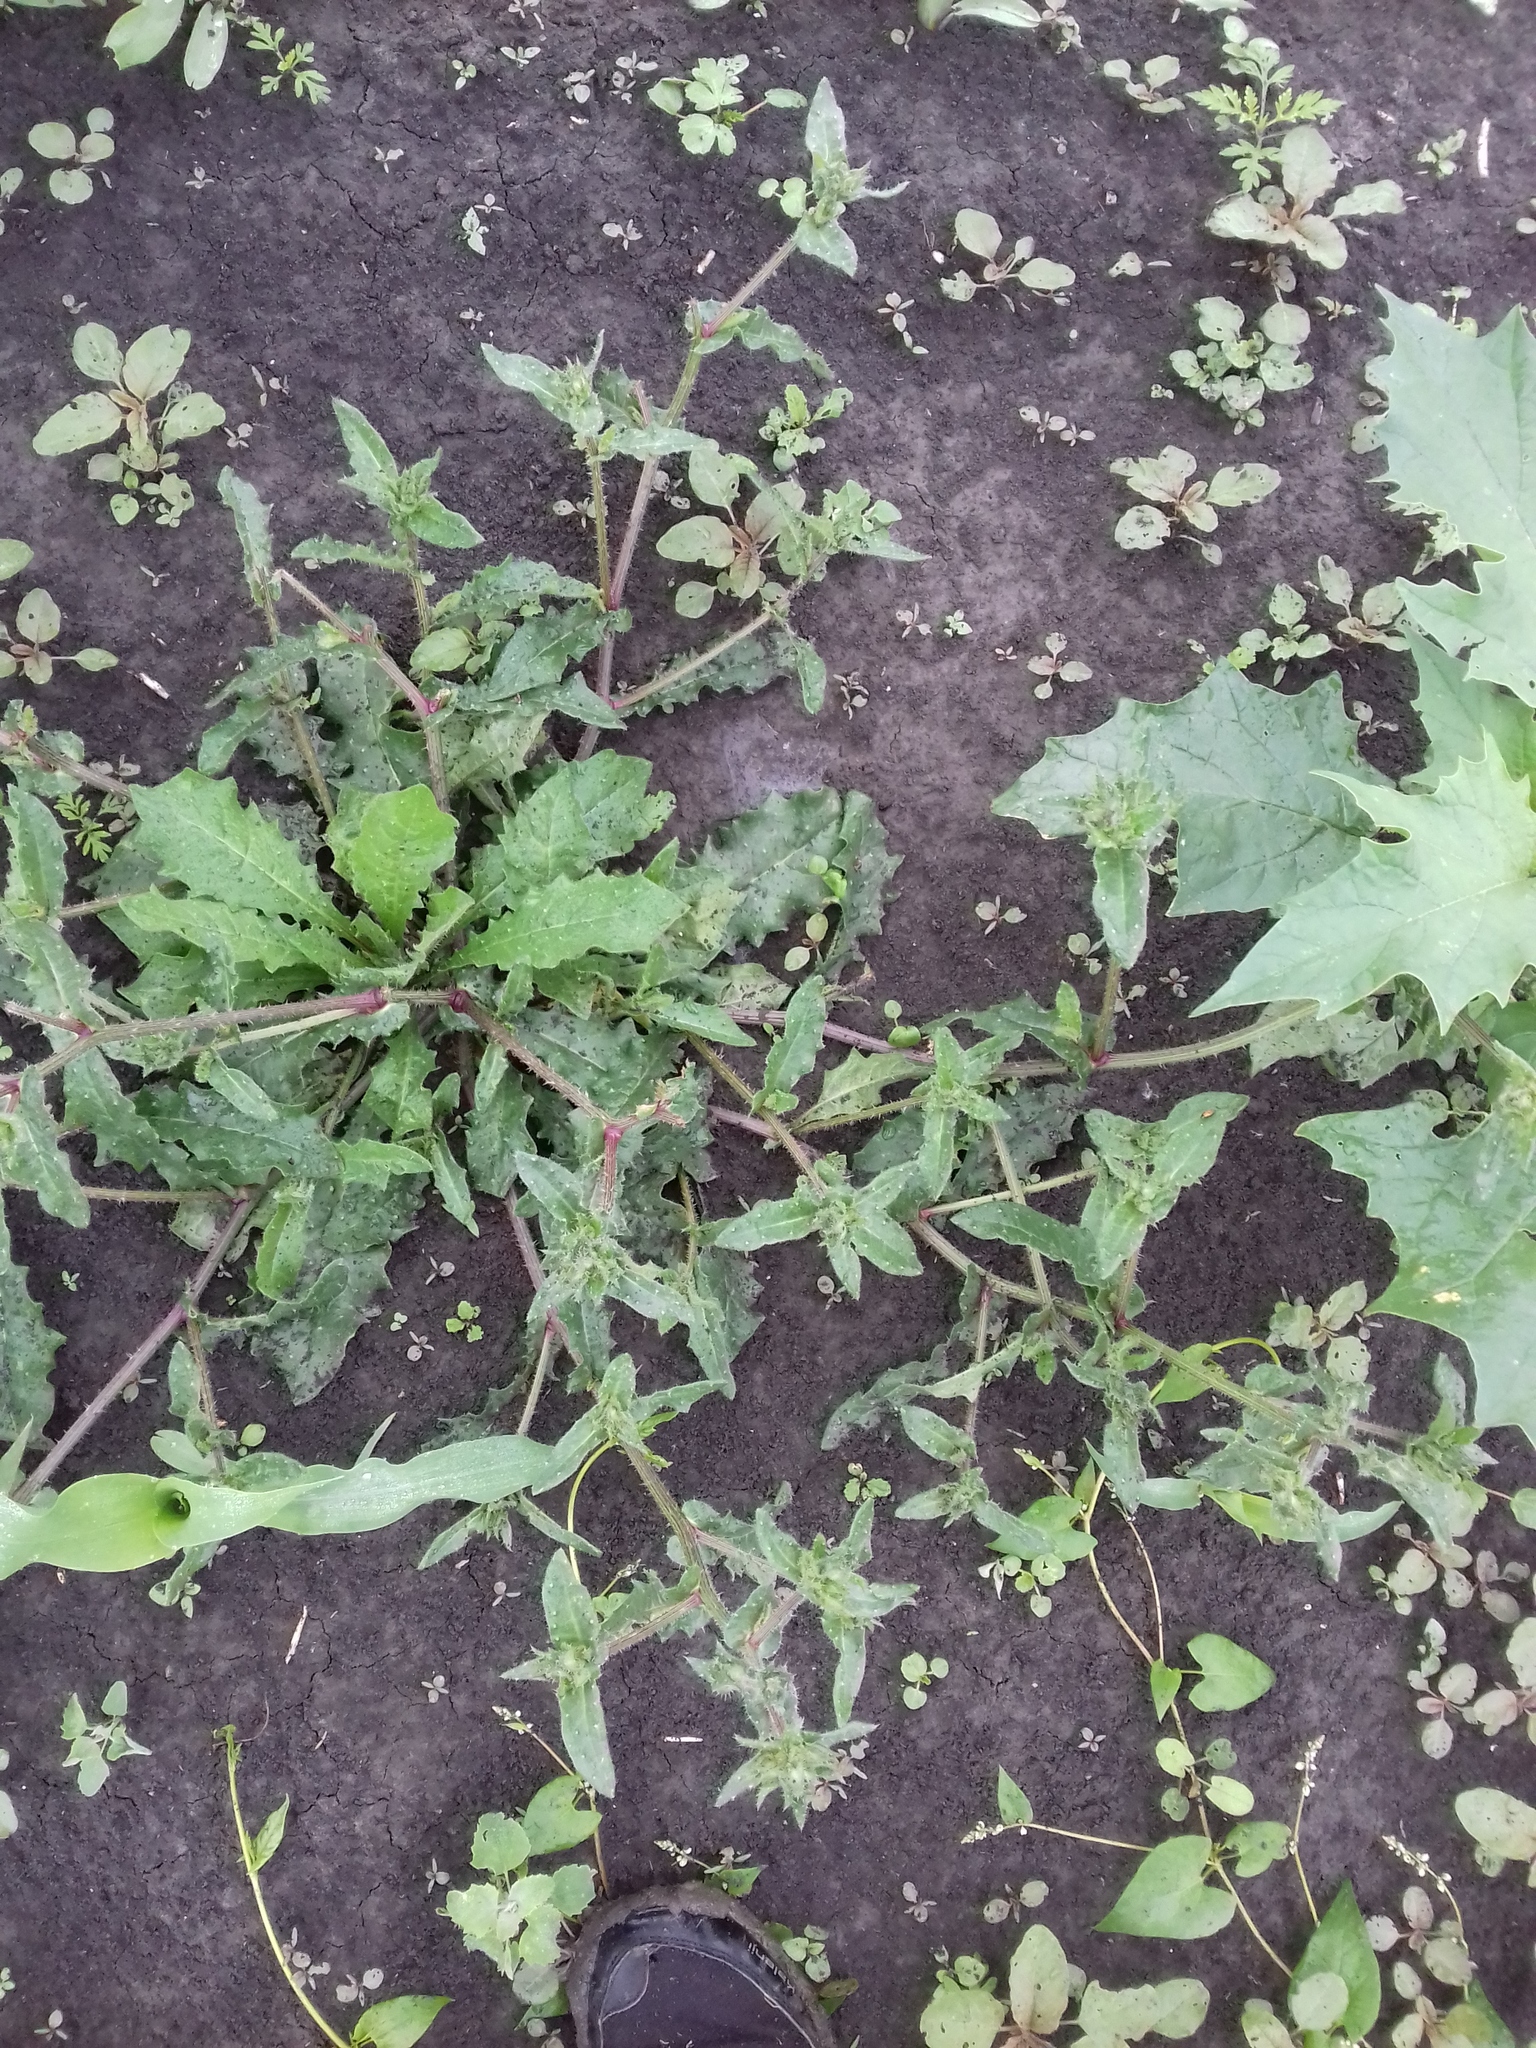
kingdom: Plantae
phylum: Tracheophyta
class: Magnoliopsida
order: Asterales
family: Asteraceae
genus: Helminthotheca
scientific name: Helminthotheca echioides
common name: Ox-tongue
